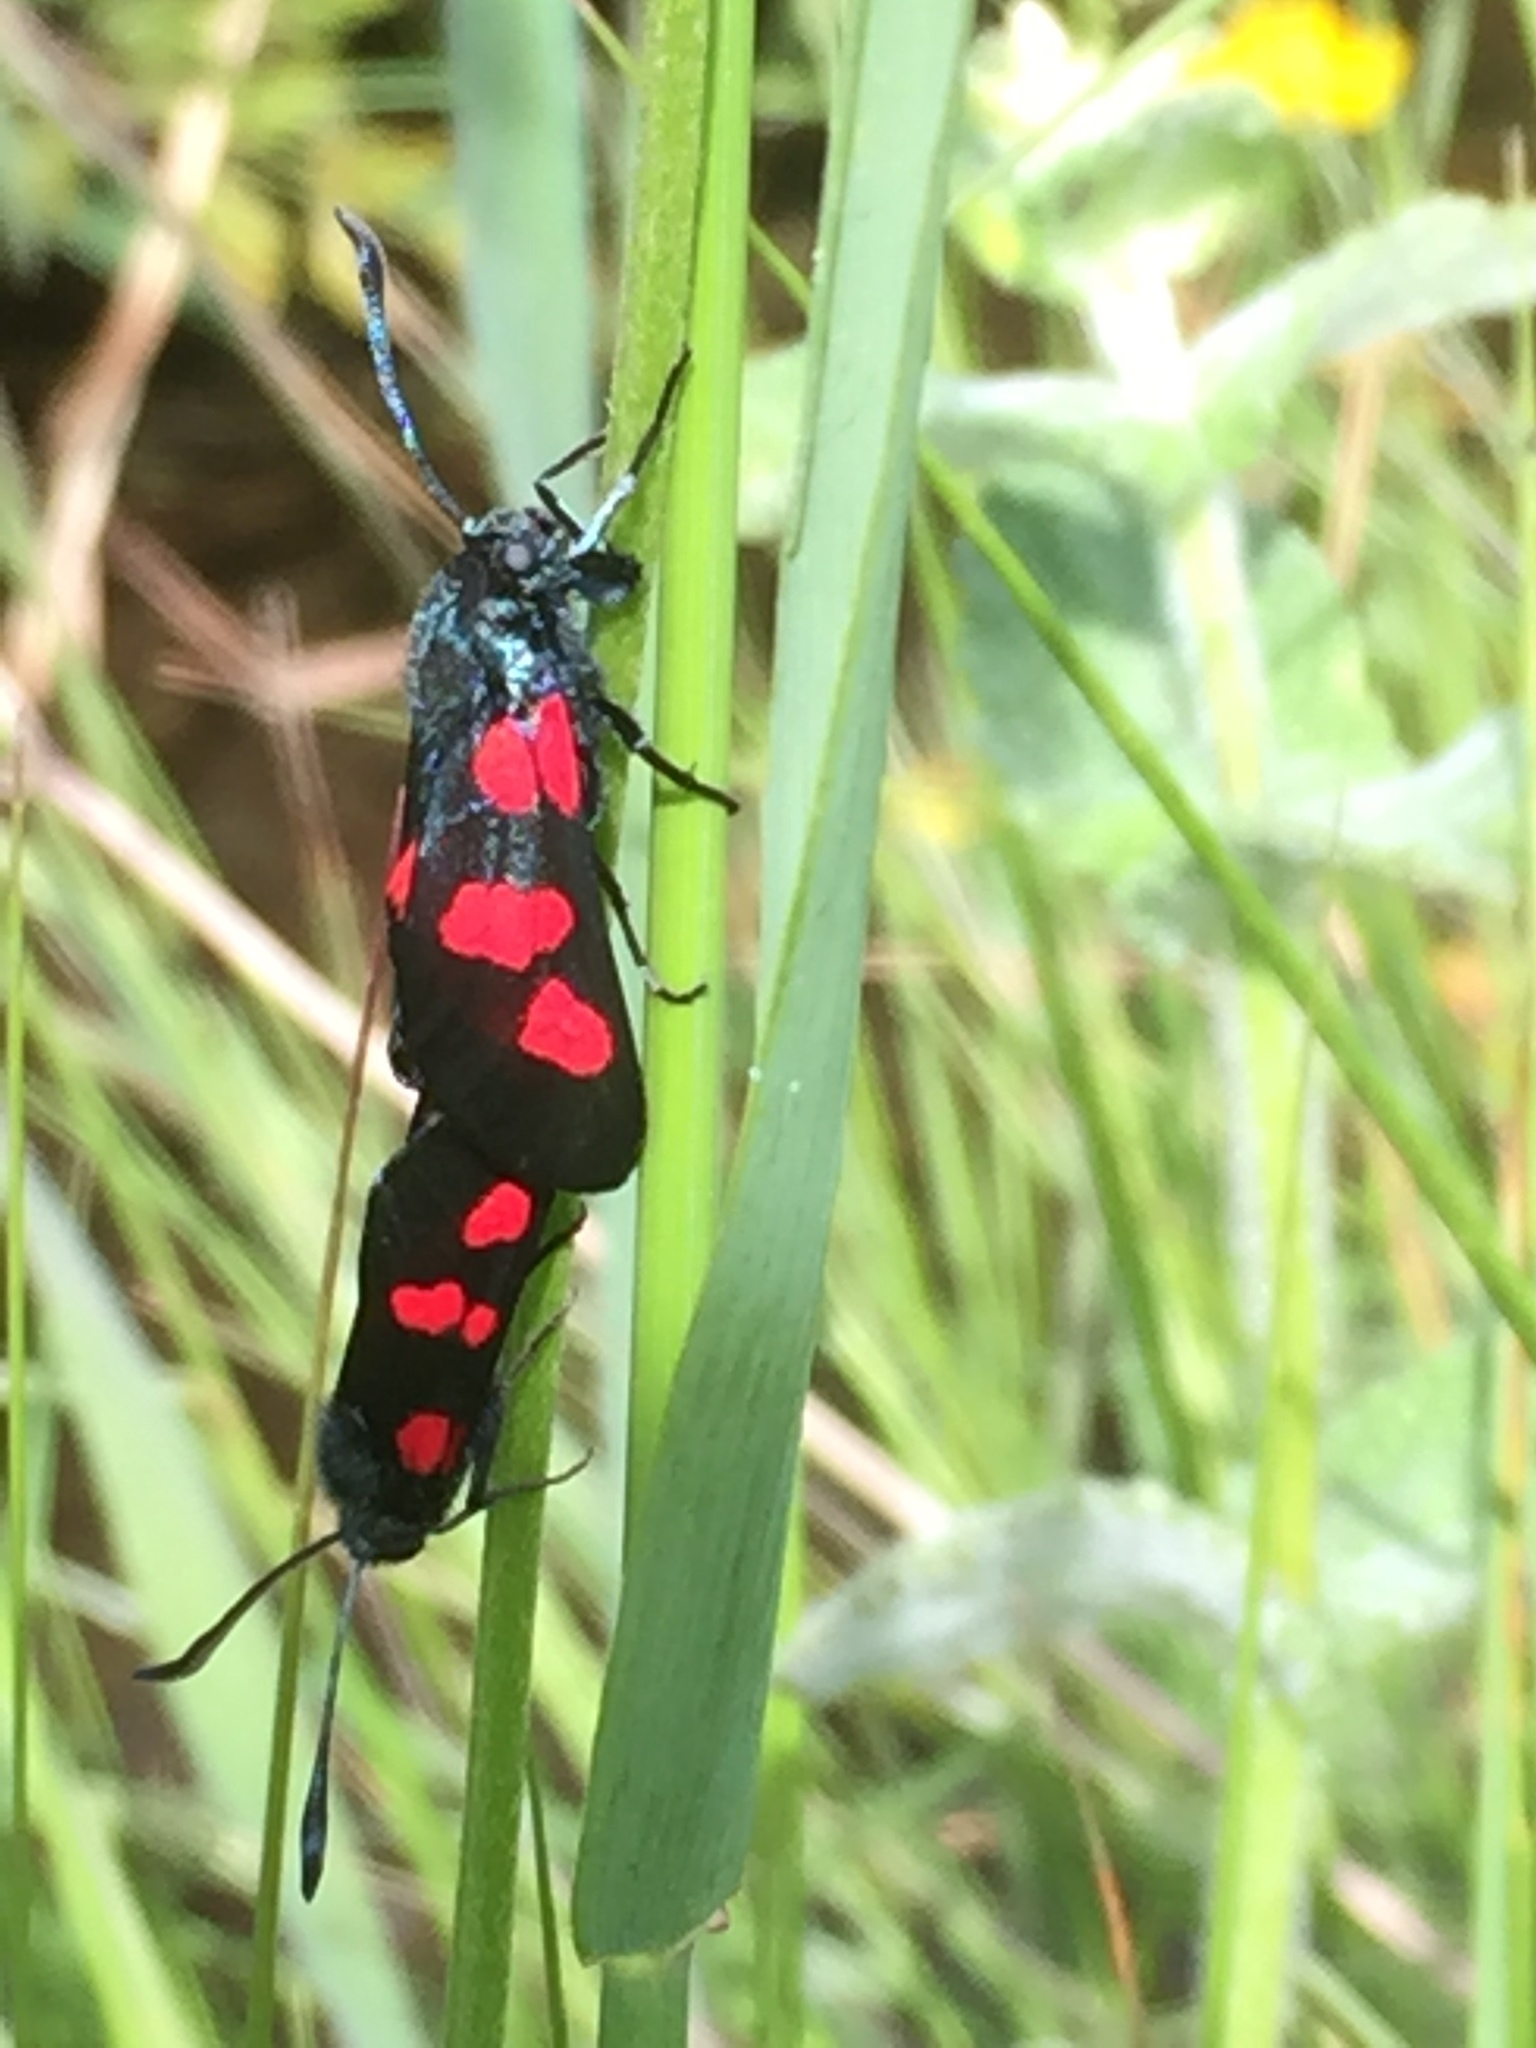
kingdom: Animalia
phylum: Arthropoda
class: Insecta
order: Lepidoptera
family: Zygaenidae
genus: Zygaena
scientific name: Zygaena trifolii
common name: Five-spot burnet
